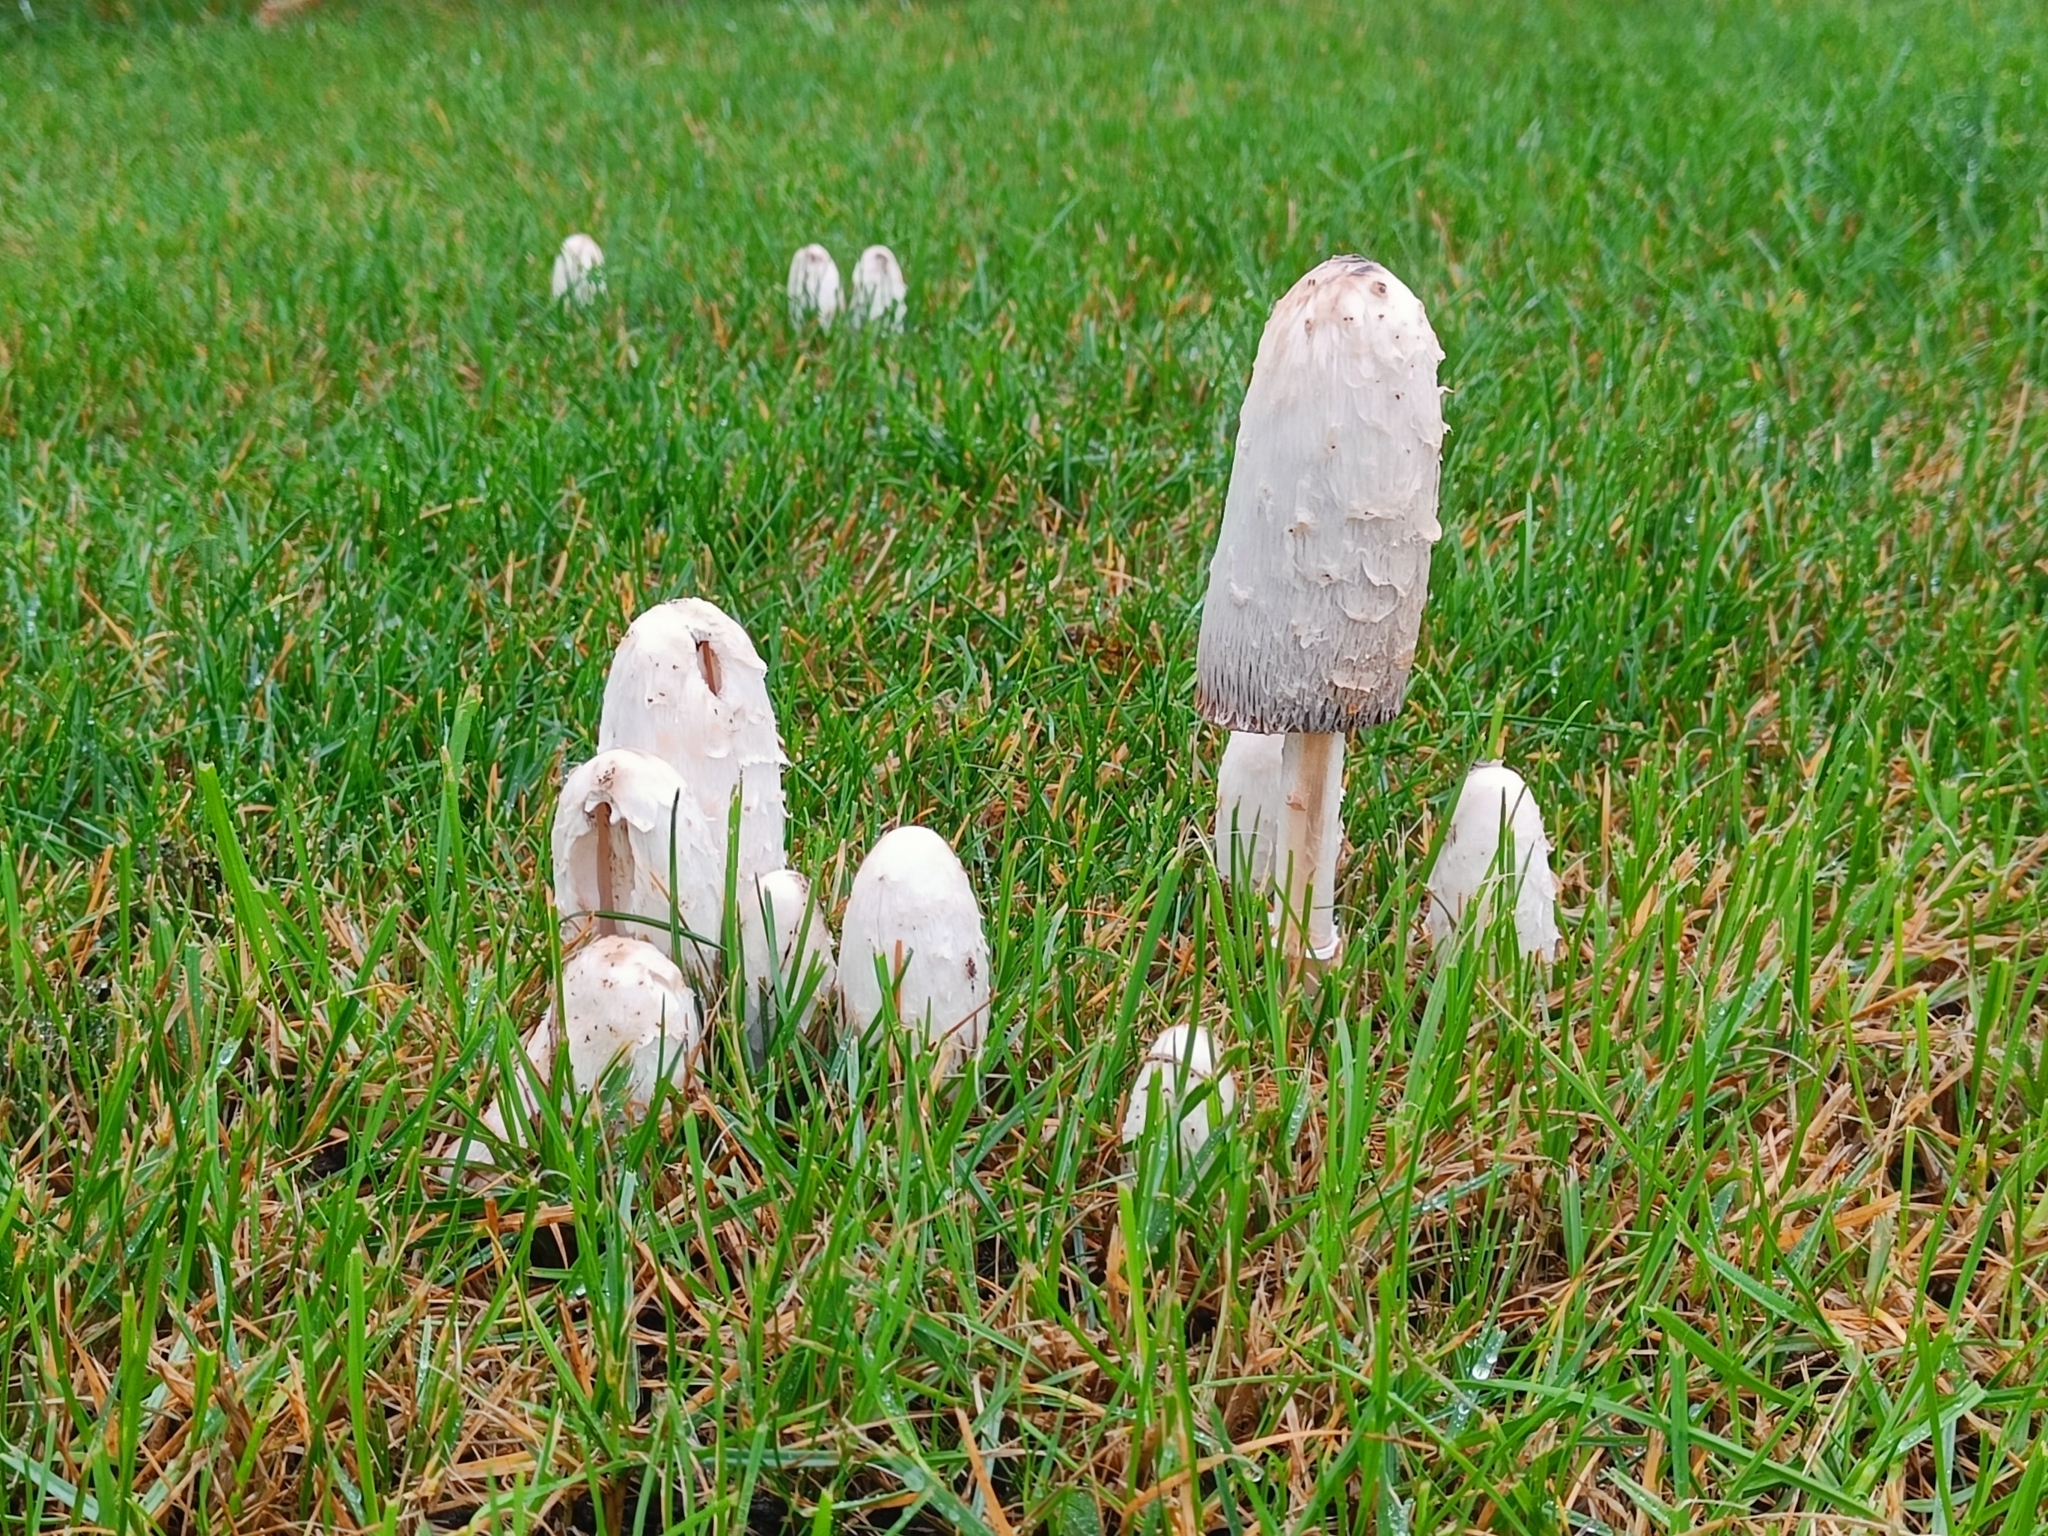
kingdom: Fungi
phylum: Basidiomycota
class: Agaricomycetes
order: Agaricales
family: Agaricaceae
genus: Coprinus
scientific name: Coprinus comatus
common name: Lawyer's wig
